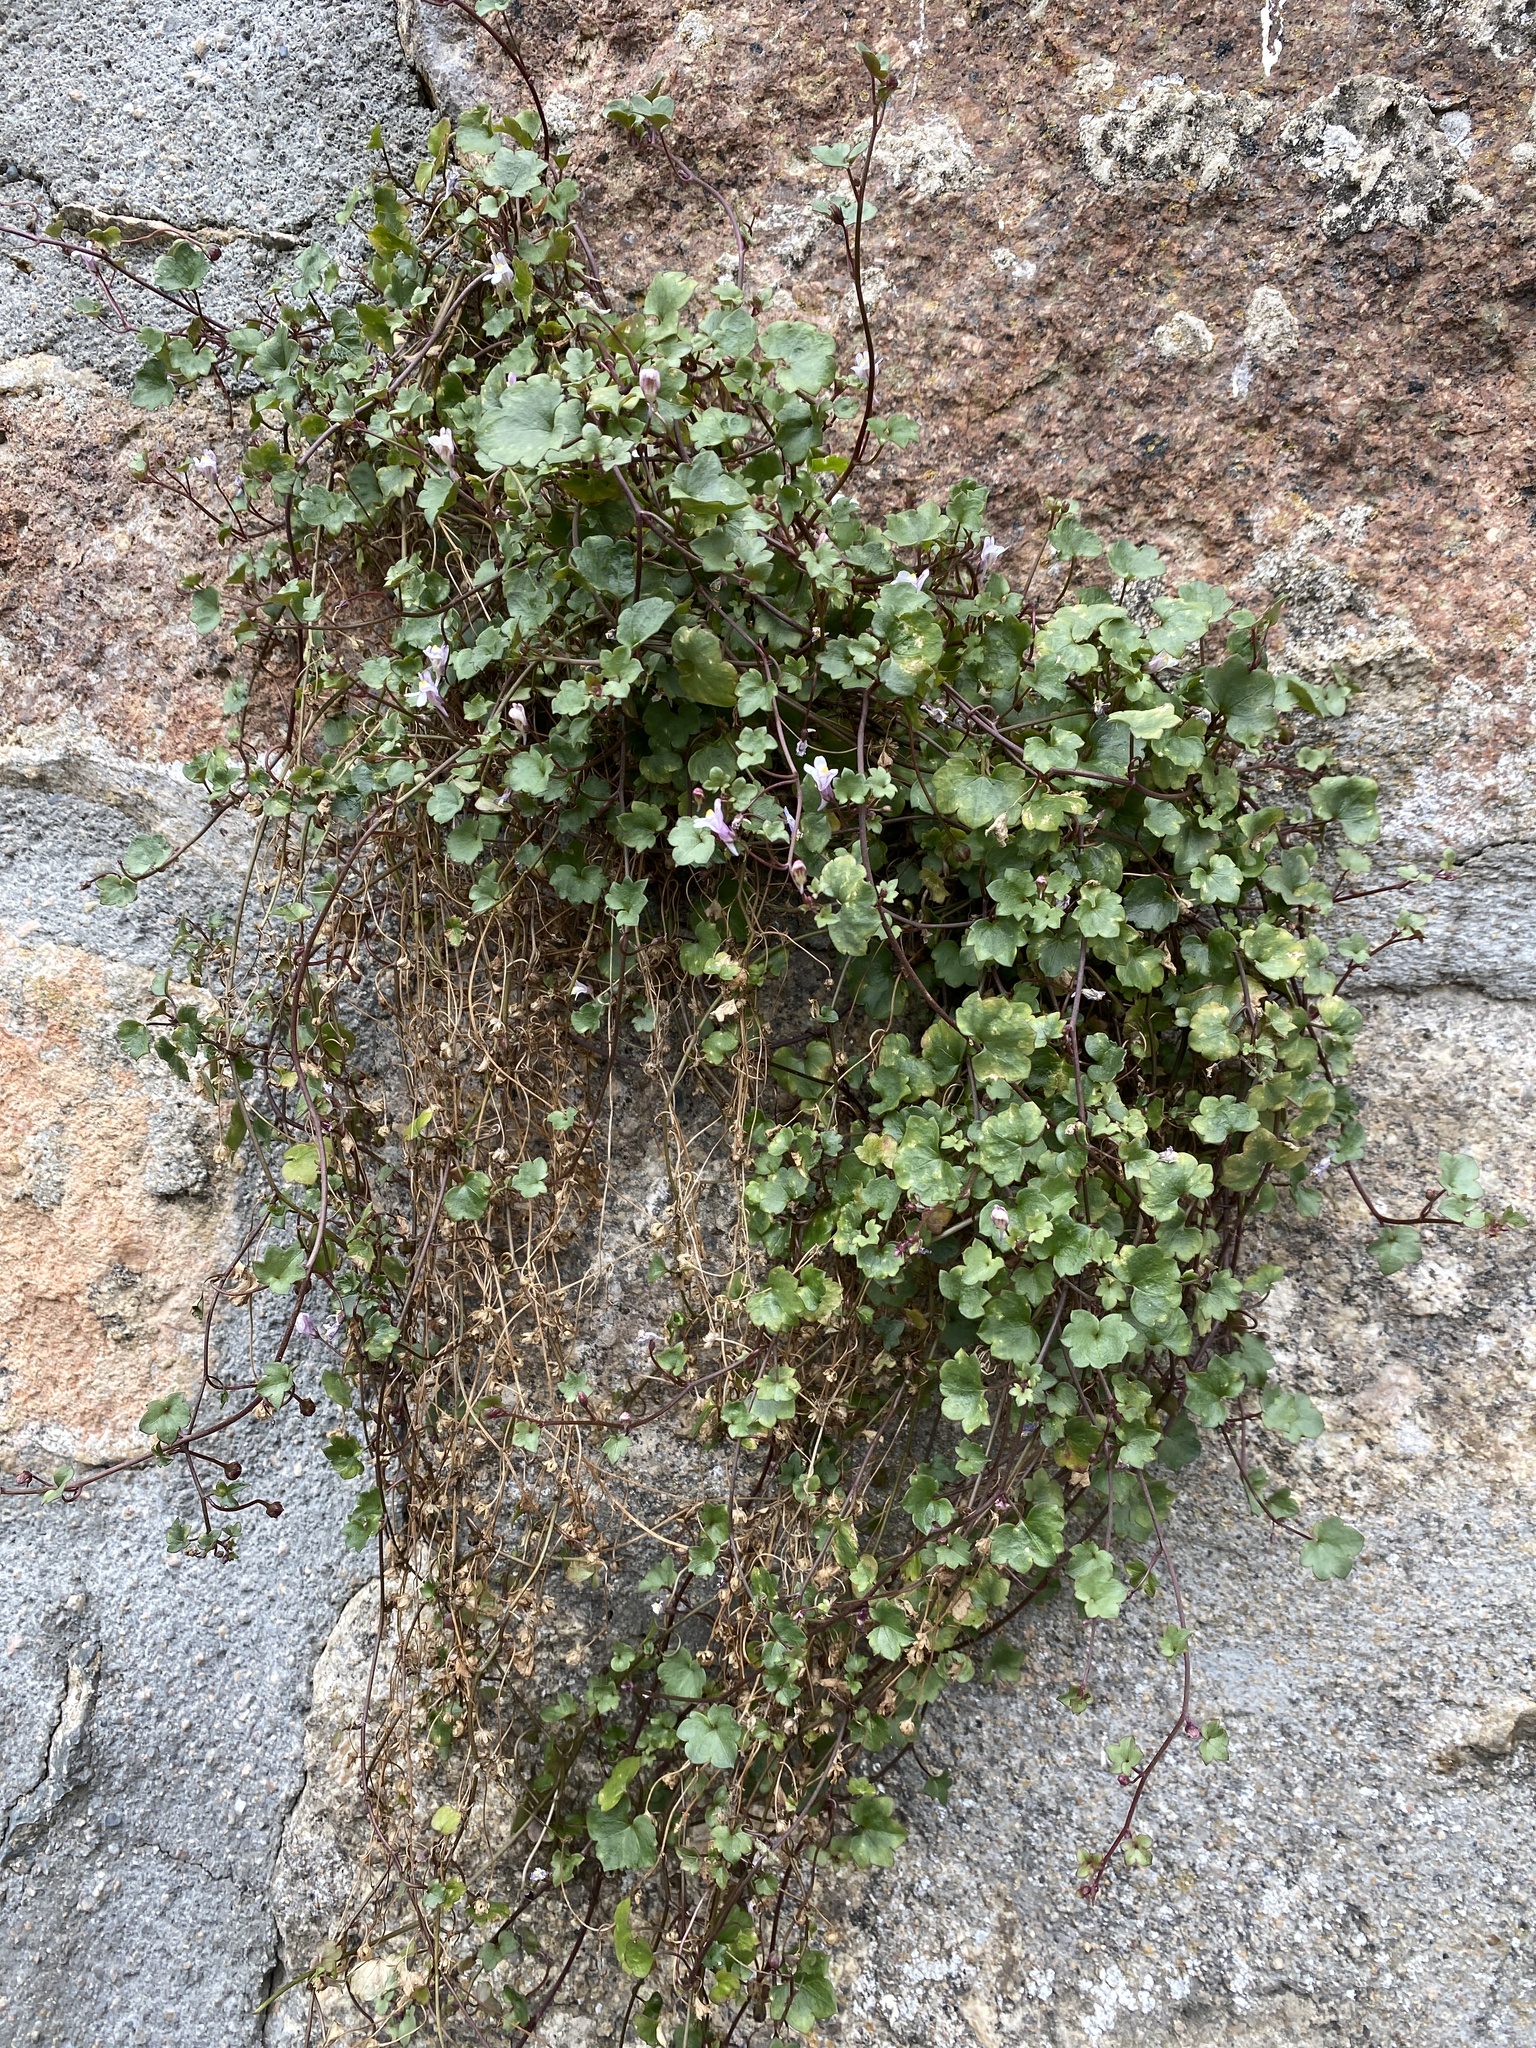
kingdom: Plantae
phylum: Tracheophyta
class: Magnoliopsida
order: Lamiales
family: Plantaginaceae
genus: Cymbalaria
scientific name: Cymbalaria muralis
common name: Ivy-leaved toadflax
